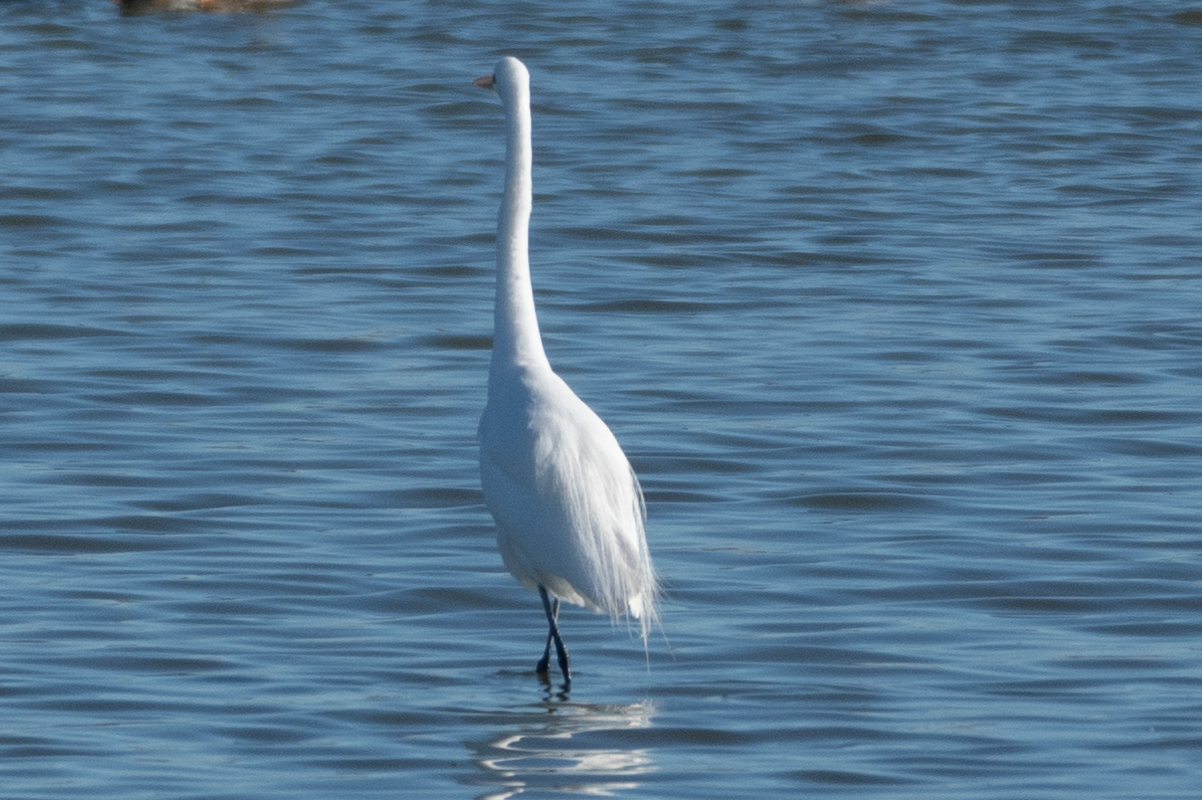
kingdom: Animalia
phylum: Chordata
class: Aves
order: Pelecaniformes
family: Ardeidae
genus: Ardea
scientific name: Ardea alba
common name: Great egret
